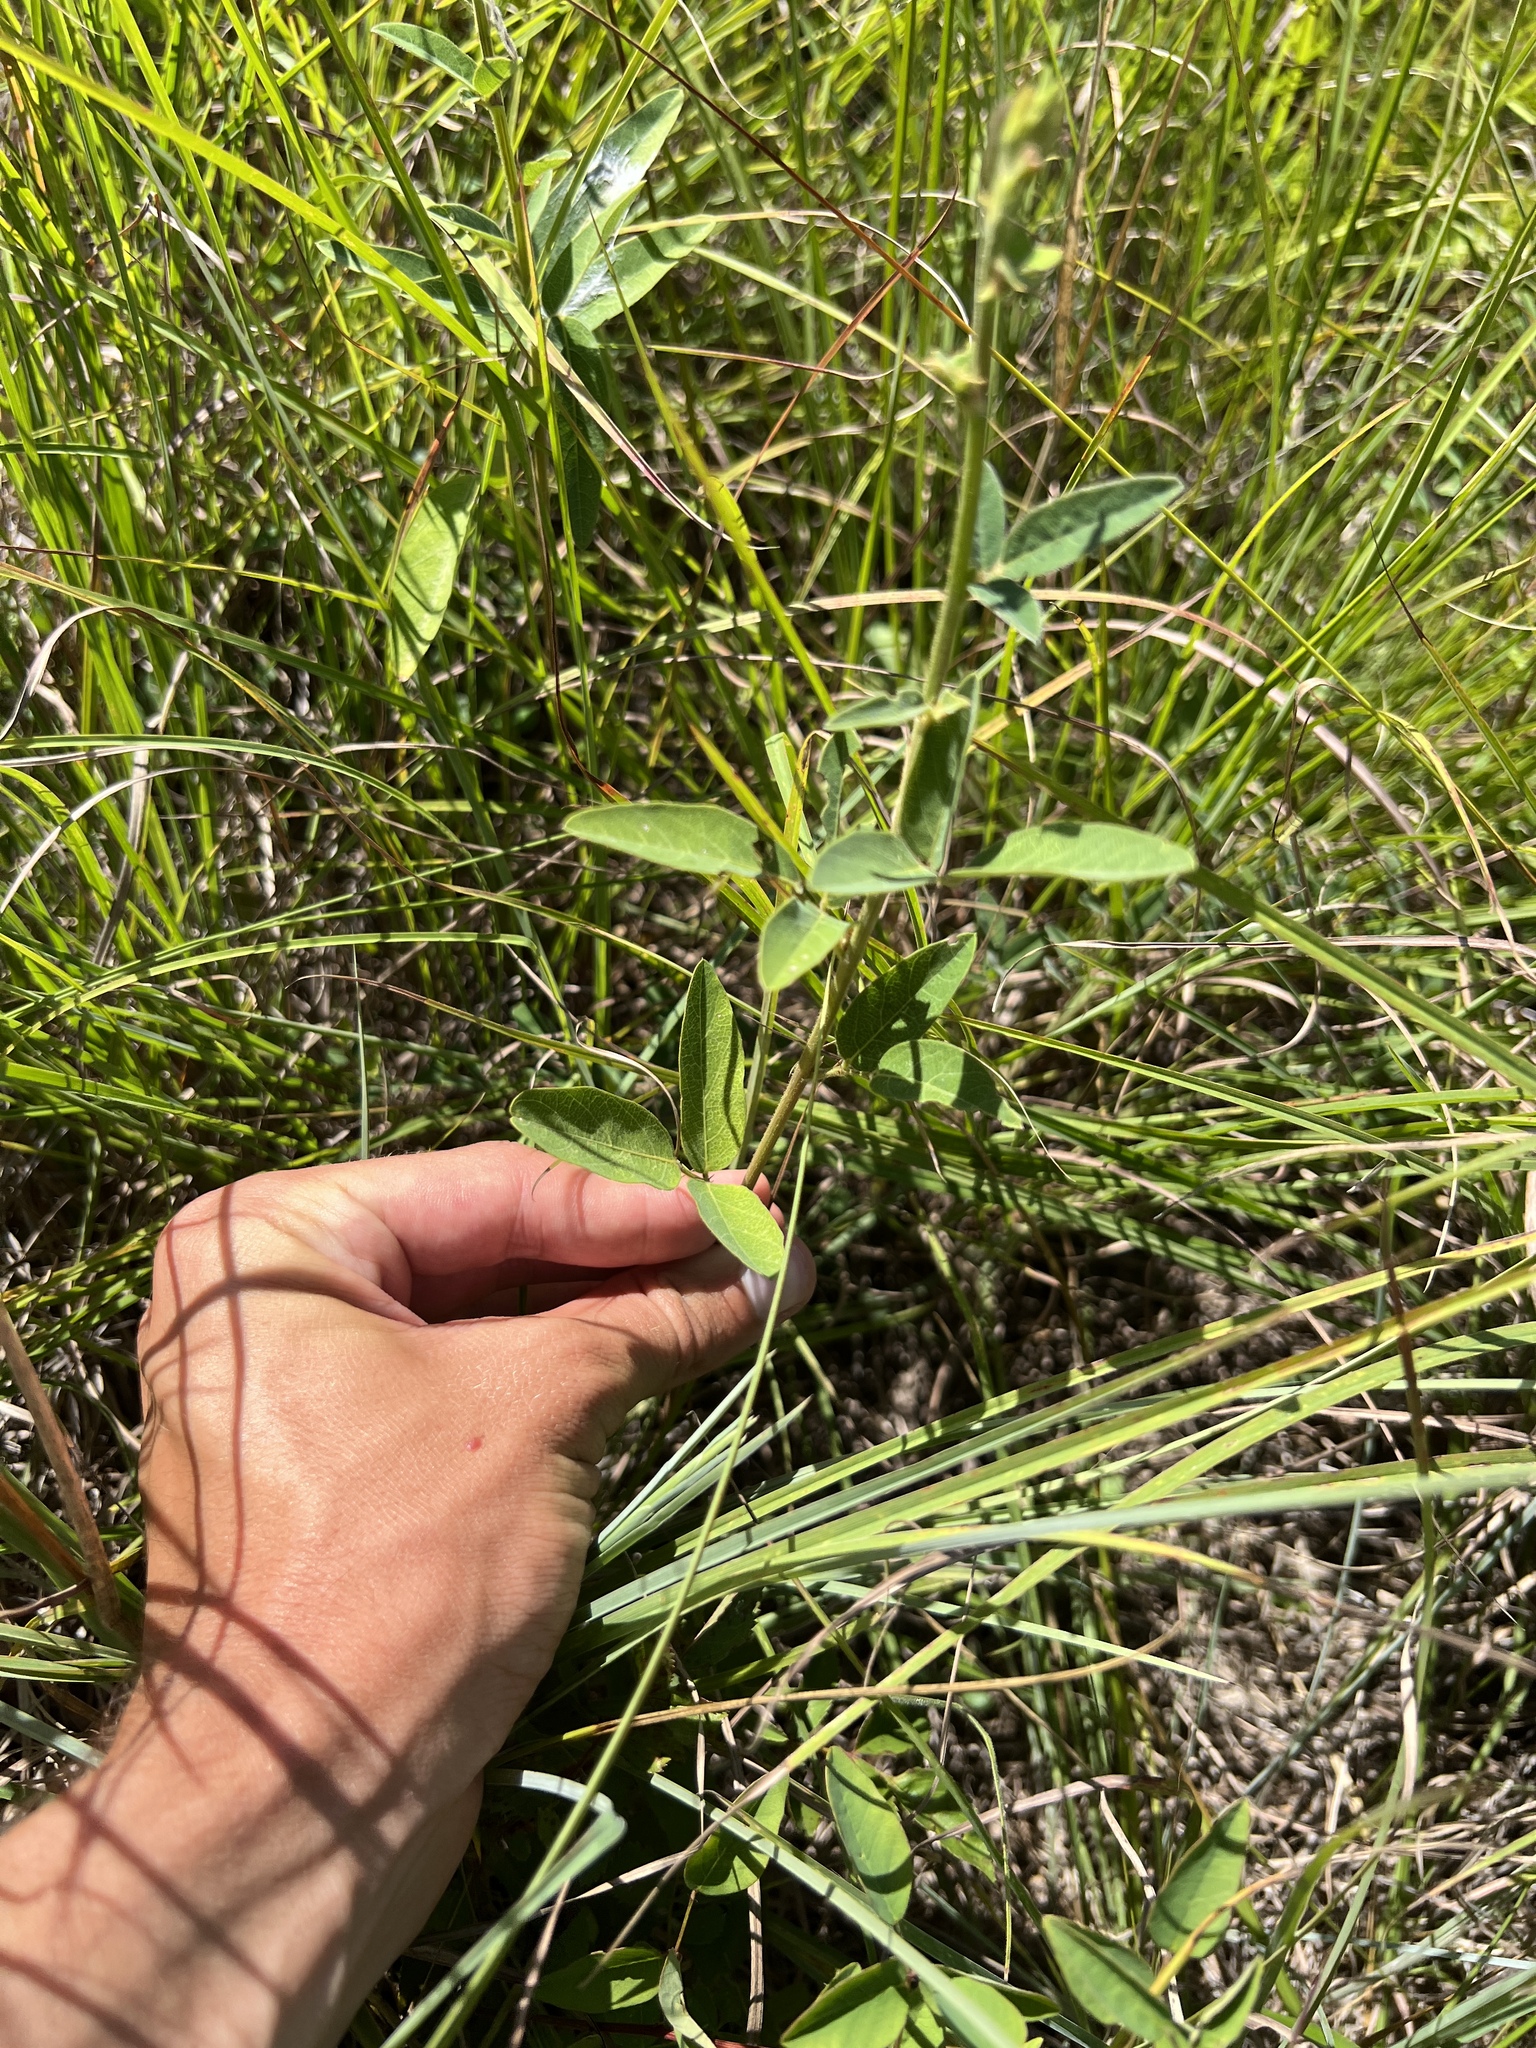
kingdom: Plantae
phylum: Tracheophyta
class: Magnoliopsida
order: Fabales
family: Fabaceae
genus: Desmodium
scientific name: Desmodium canadense
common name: Canada tick-trefoil
